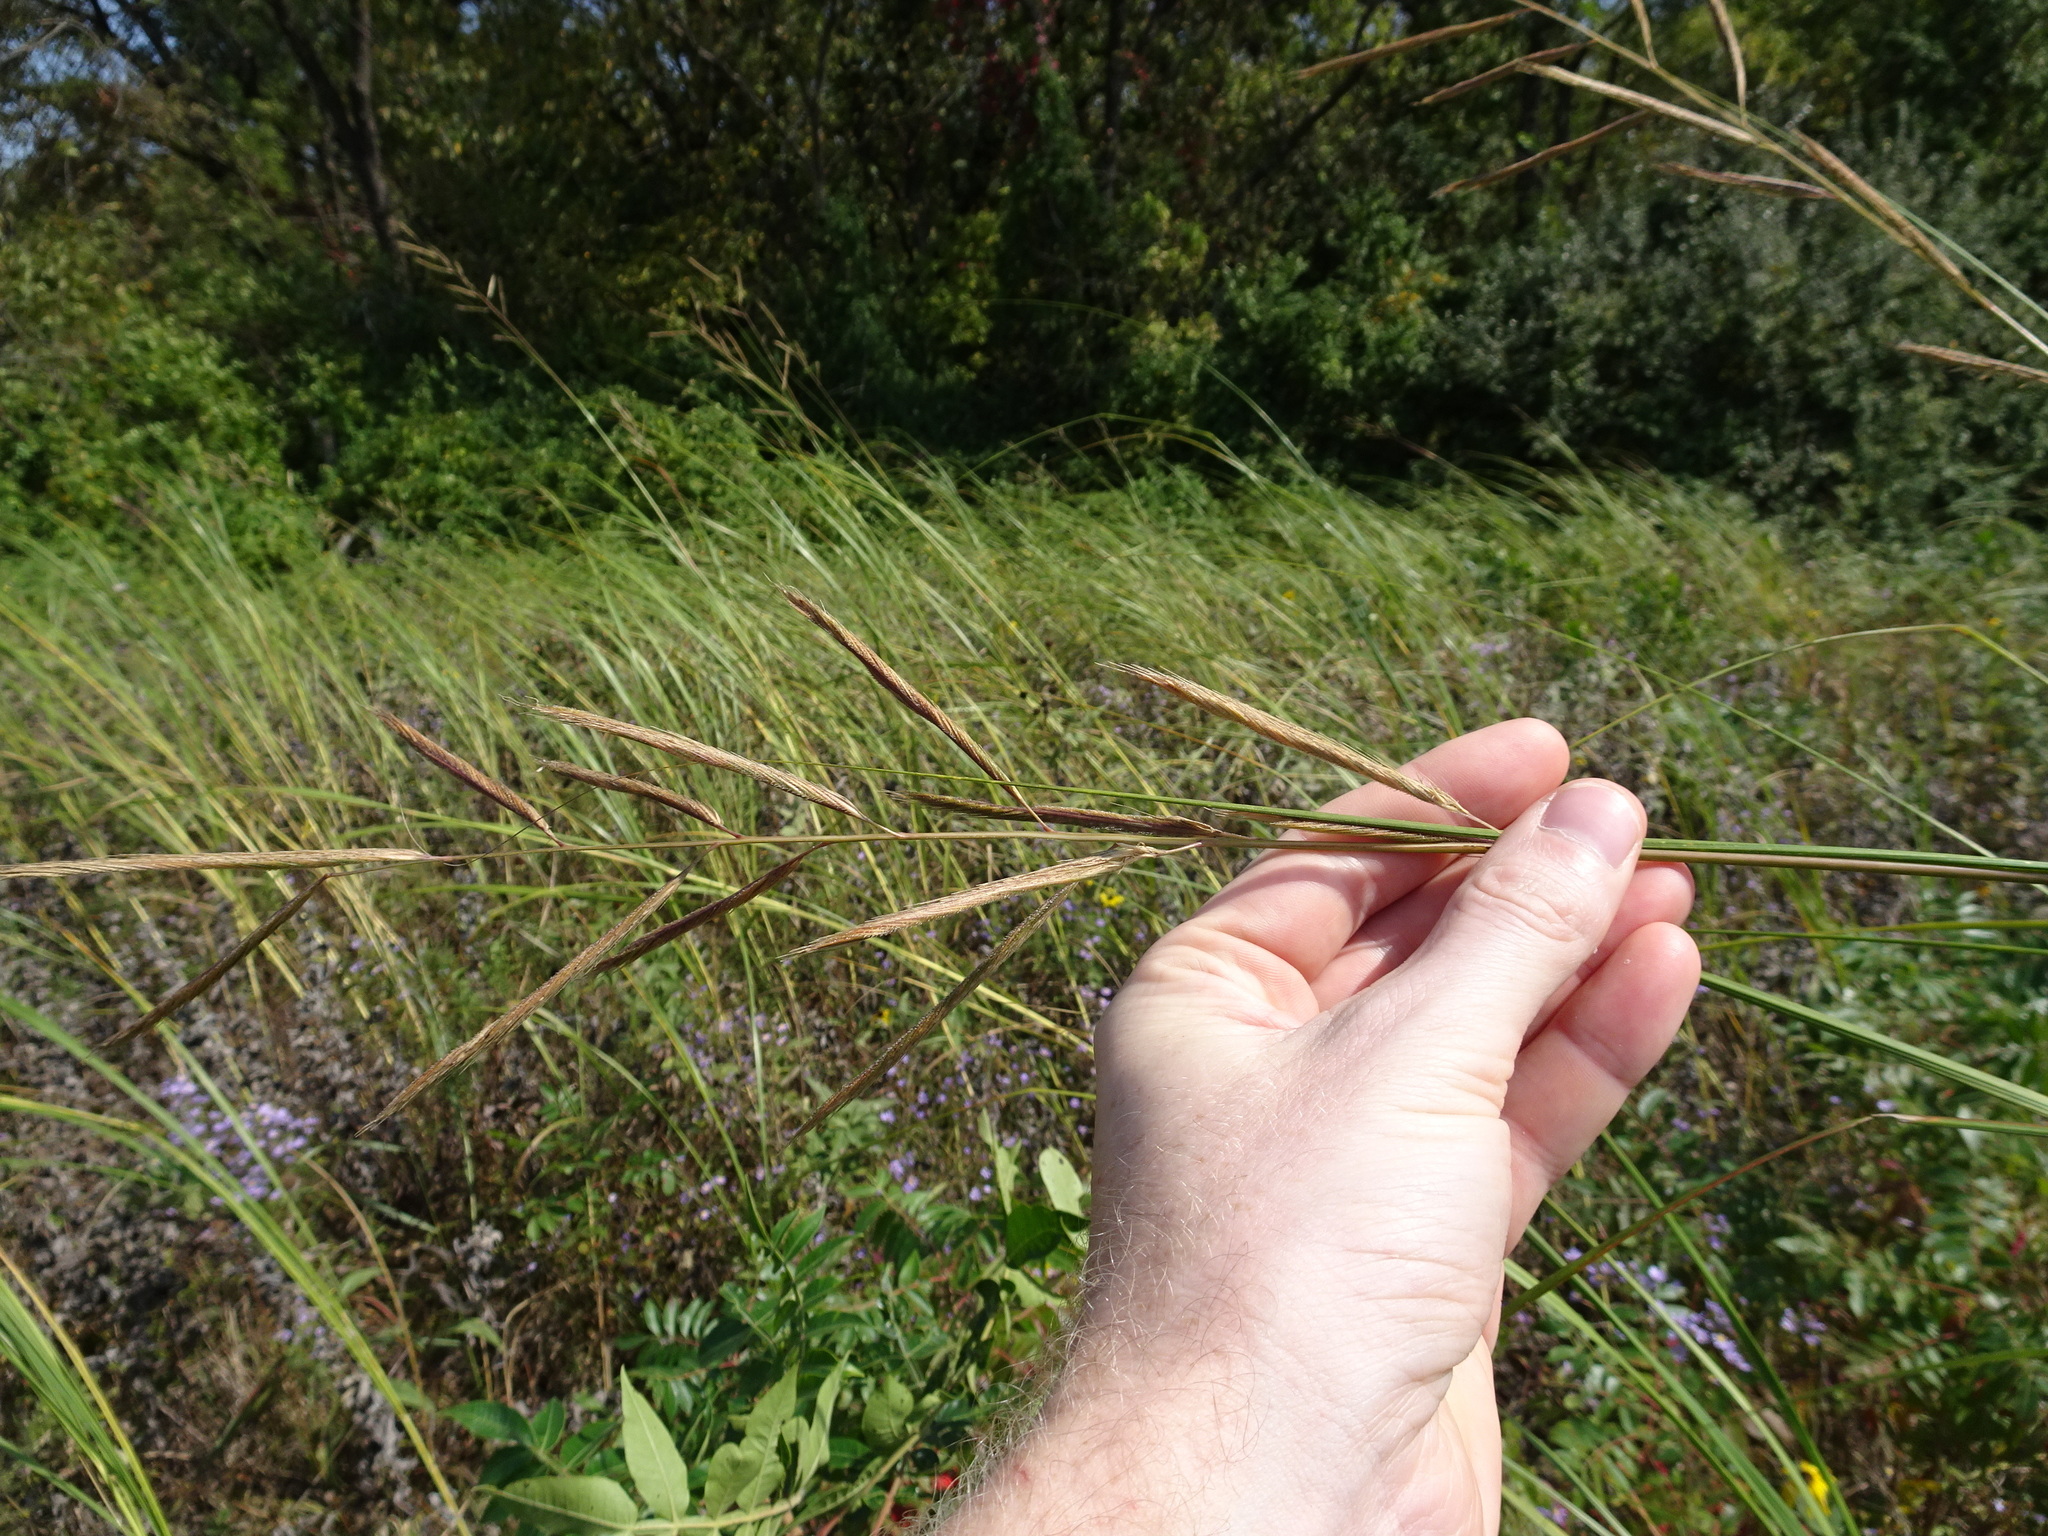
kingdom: Plantae
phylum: Tracheophyta
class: Liliopsida
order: Poales
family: Poaceae
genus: Sporobolus
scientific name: Sporobolus michauxianus
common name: Freshwater cordgrass
